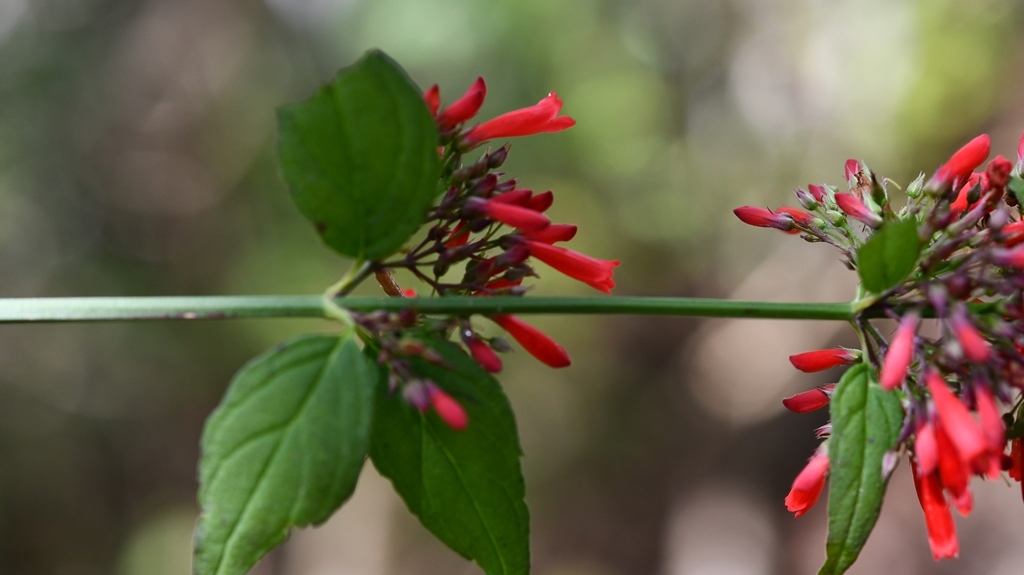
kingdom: Plantae
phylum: Tracheophyta
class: Magnoliopsida
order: Lamiales
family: Plantaginaceae
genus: Russelia
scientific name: Russelia sarmentosa
